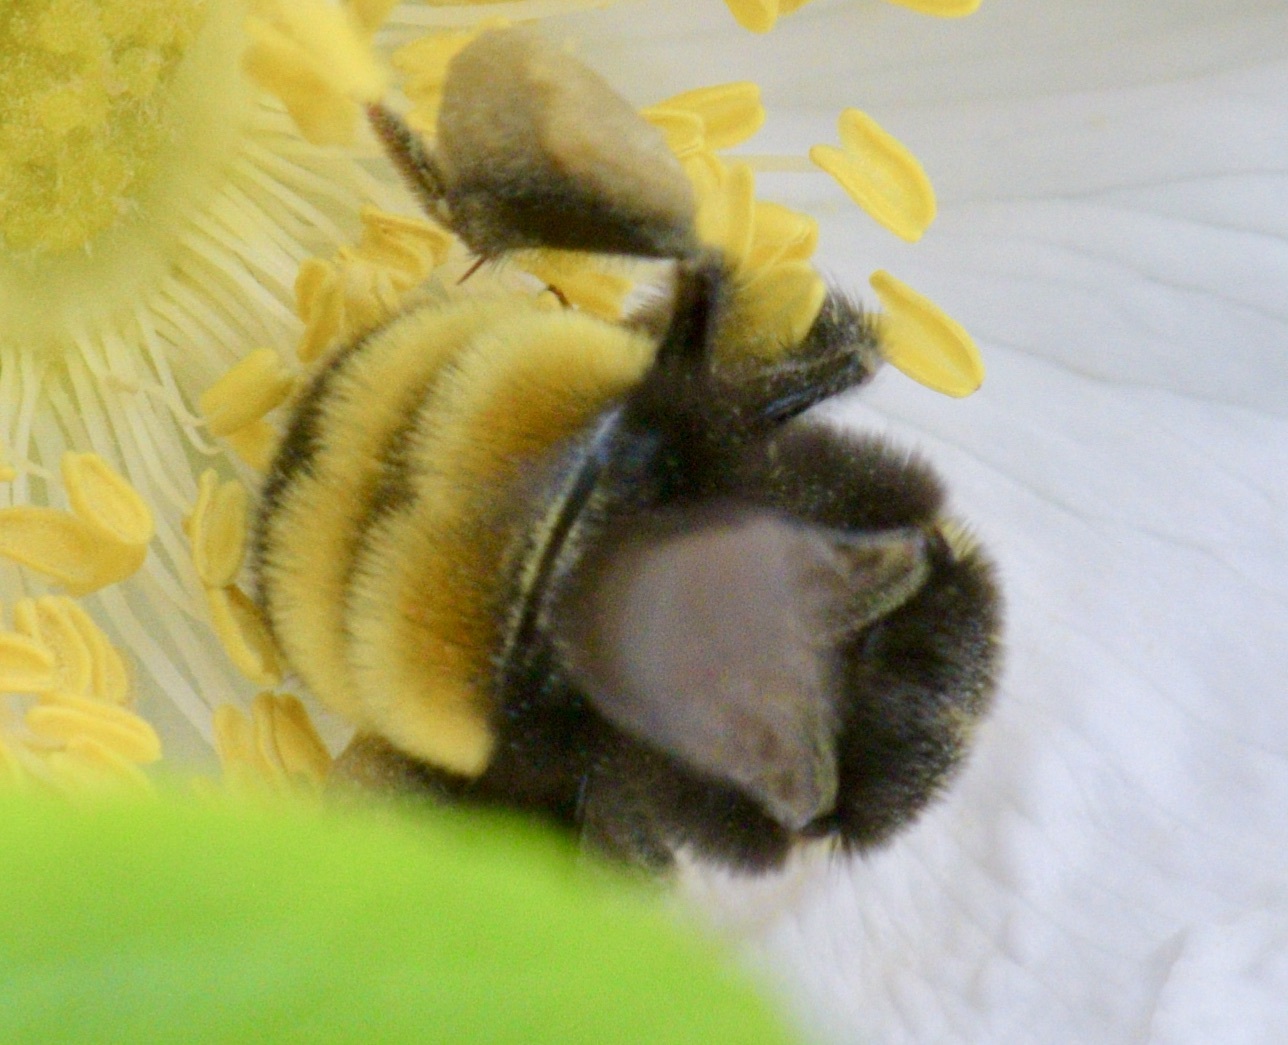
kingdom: Animalia
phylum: Arthropoda
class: Insecta
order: Hymenoptera
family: Apidae
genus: Bombus
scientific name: Bombus terricola
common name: Yellow-banded bumble bee
